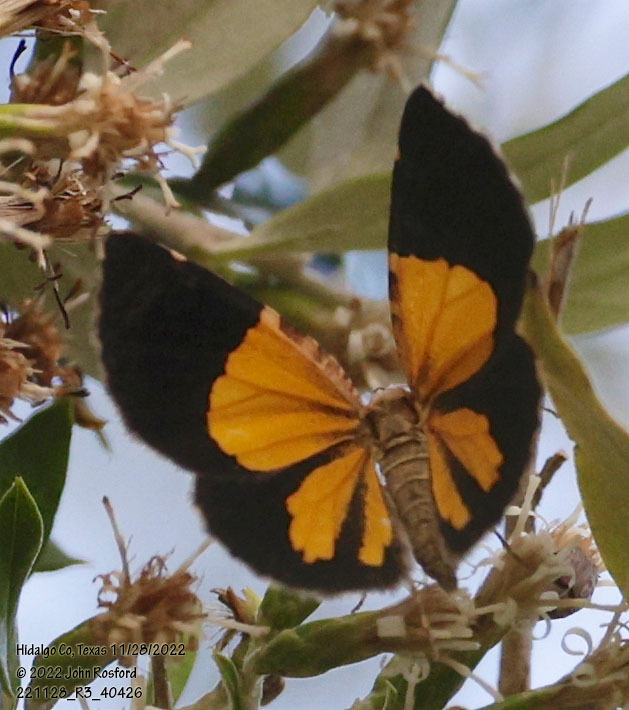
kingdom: Animalia
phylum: Arthropoda
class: Insecta
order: Lepidoptera
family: Geometridae
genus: Heterusia
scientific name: Heterusia atalantata
